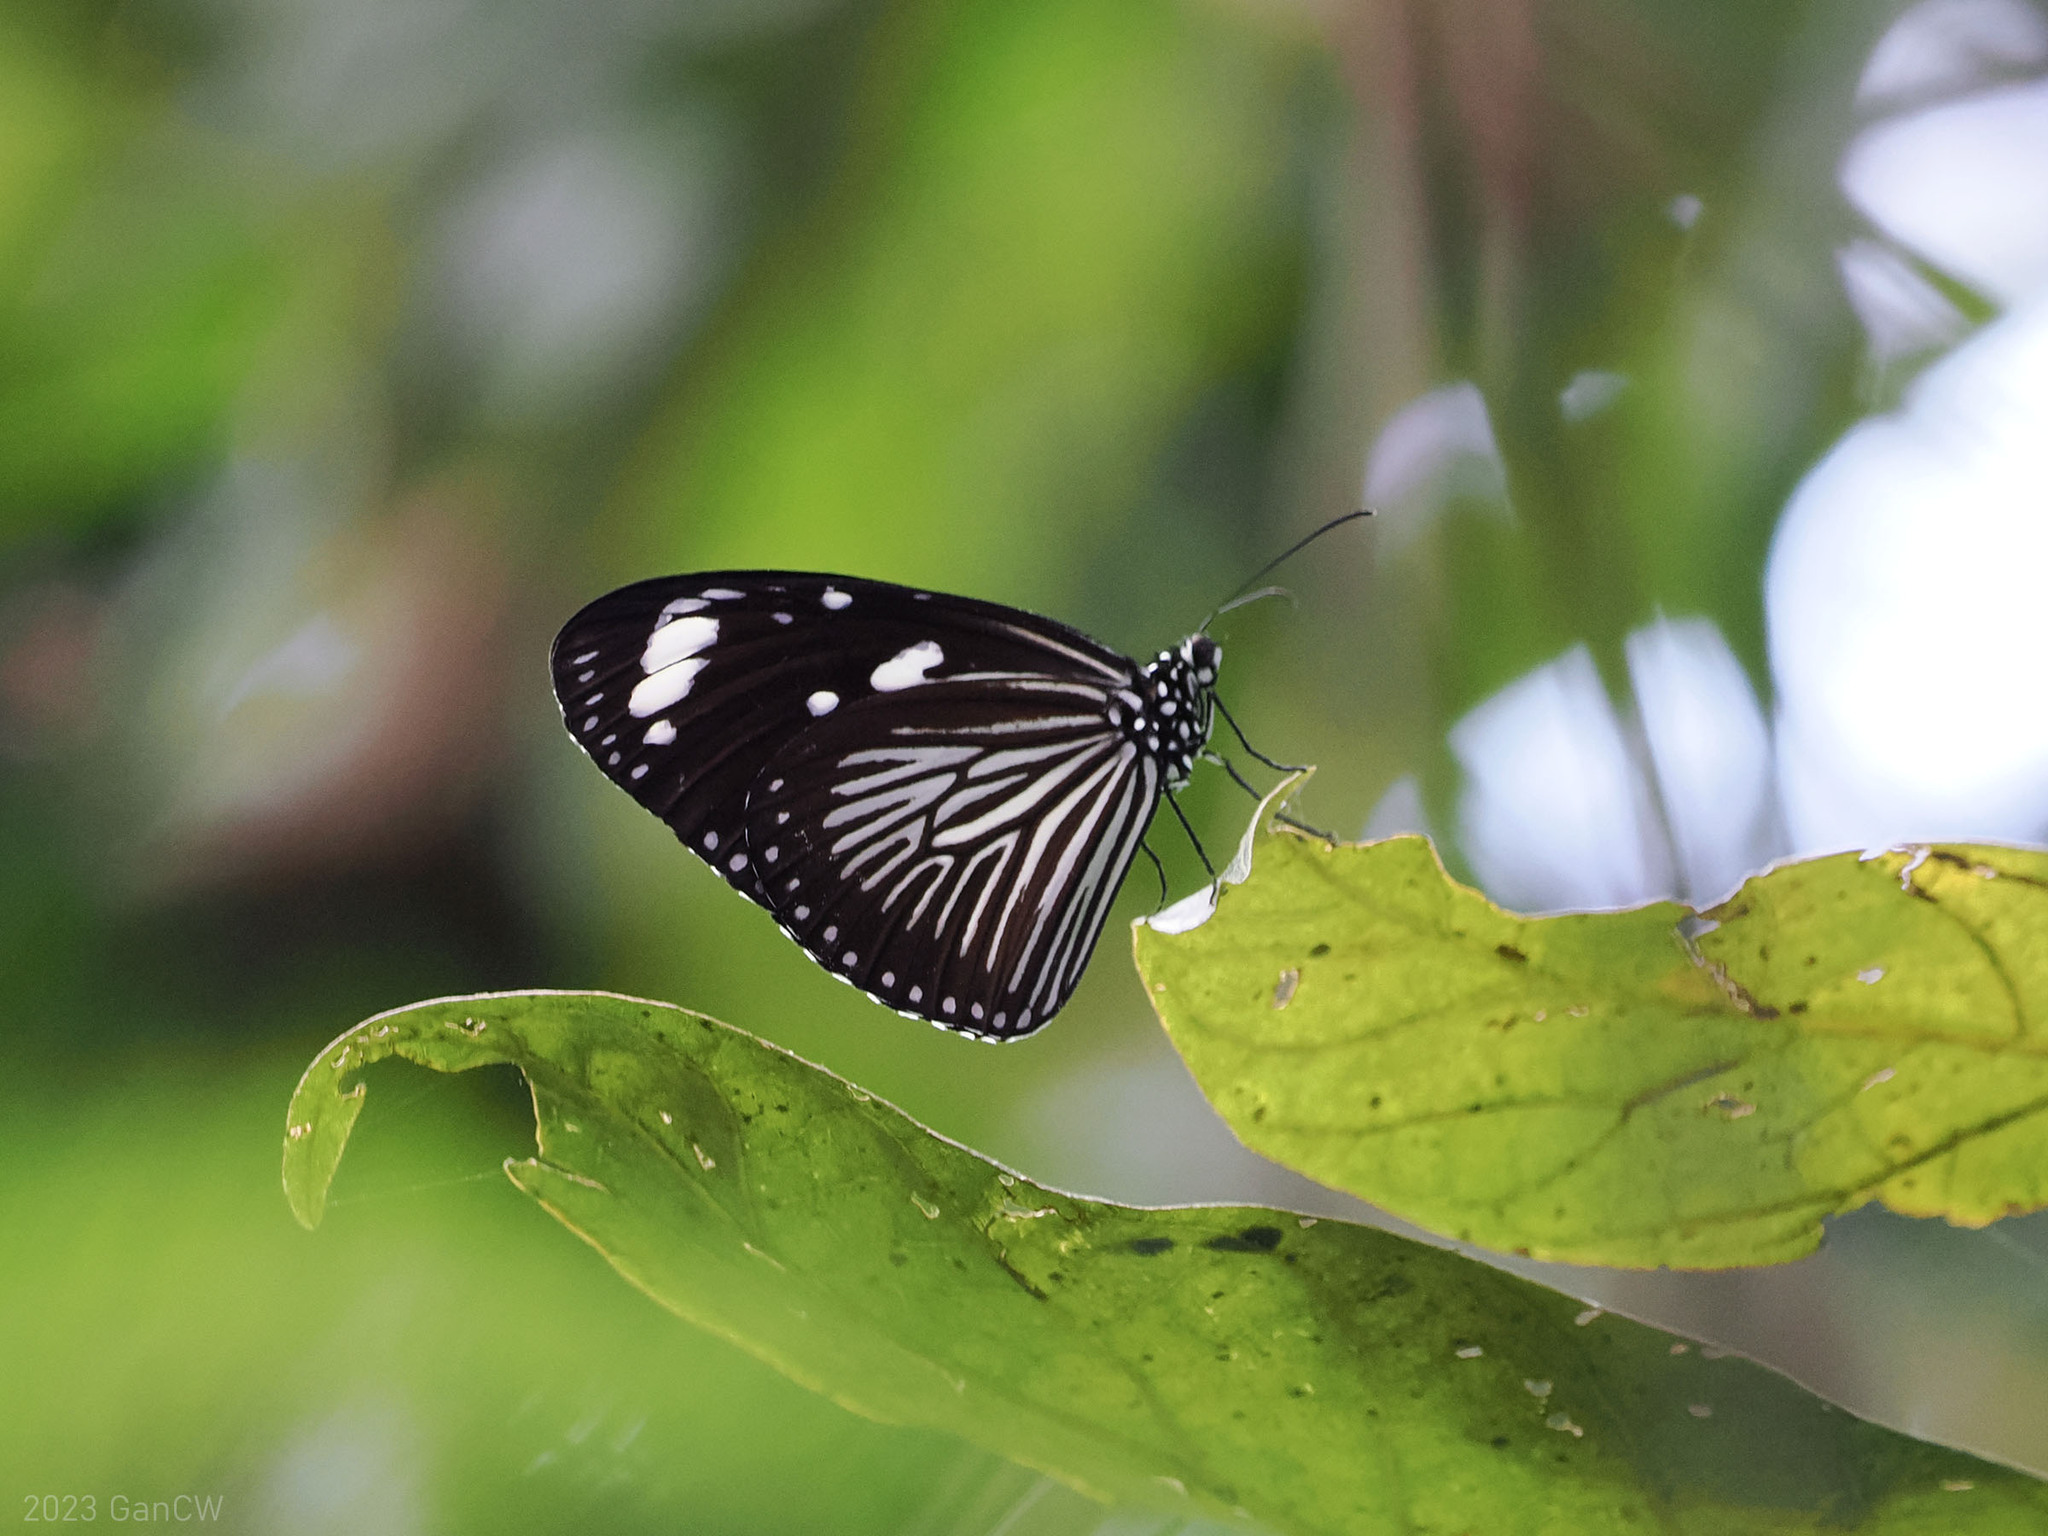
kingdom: Animalia
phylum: Arthropoda
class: Insecta
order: Lepidoptera
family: Nymphalidae
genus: Euploea
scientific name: Euploea mulciber
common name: Striped blue crow butterfly
